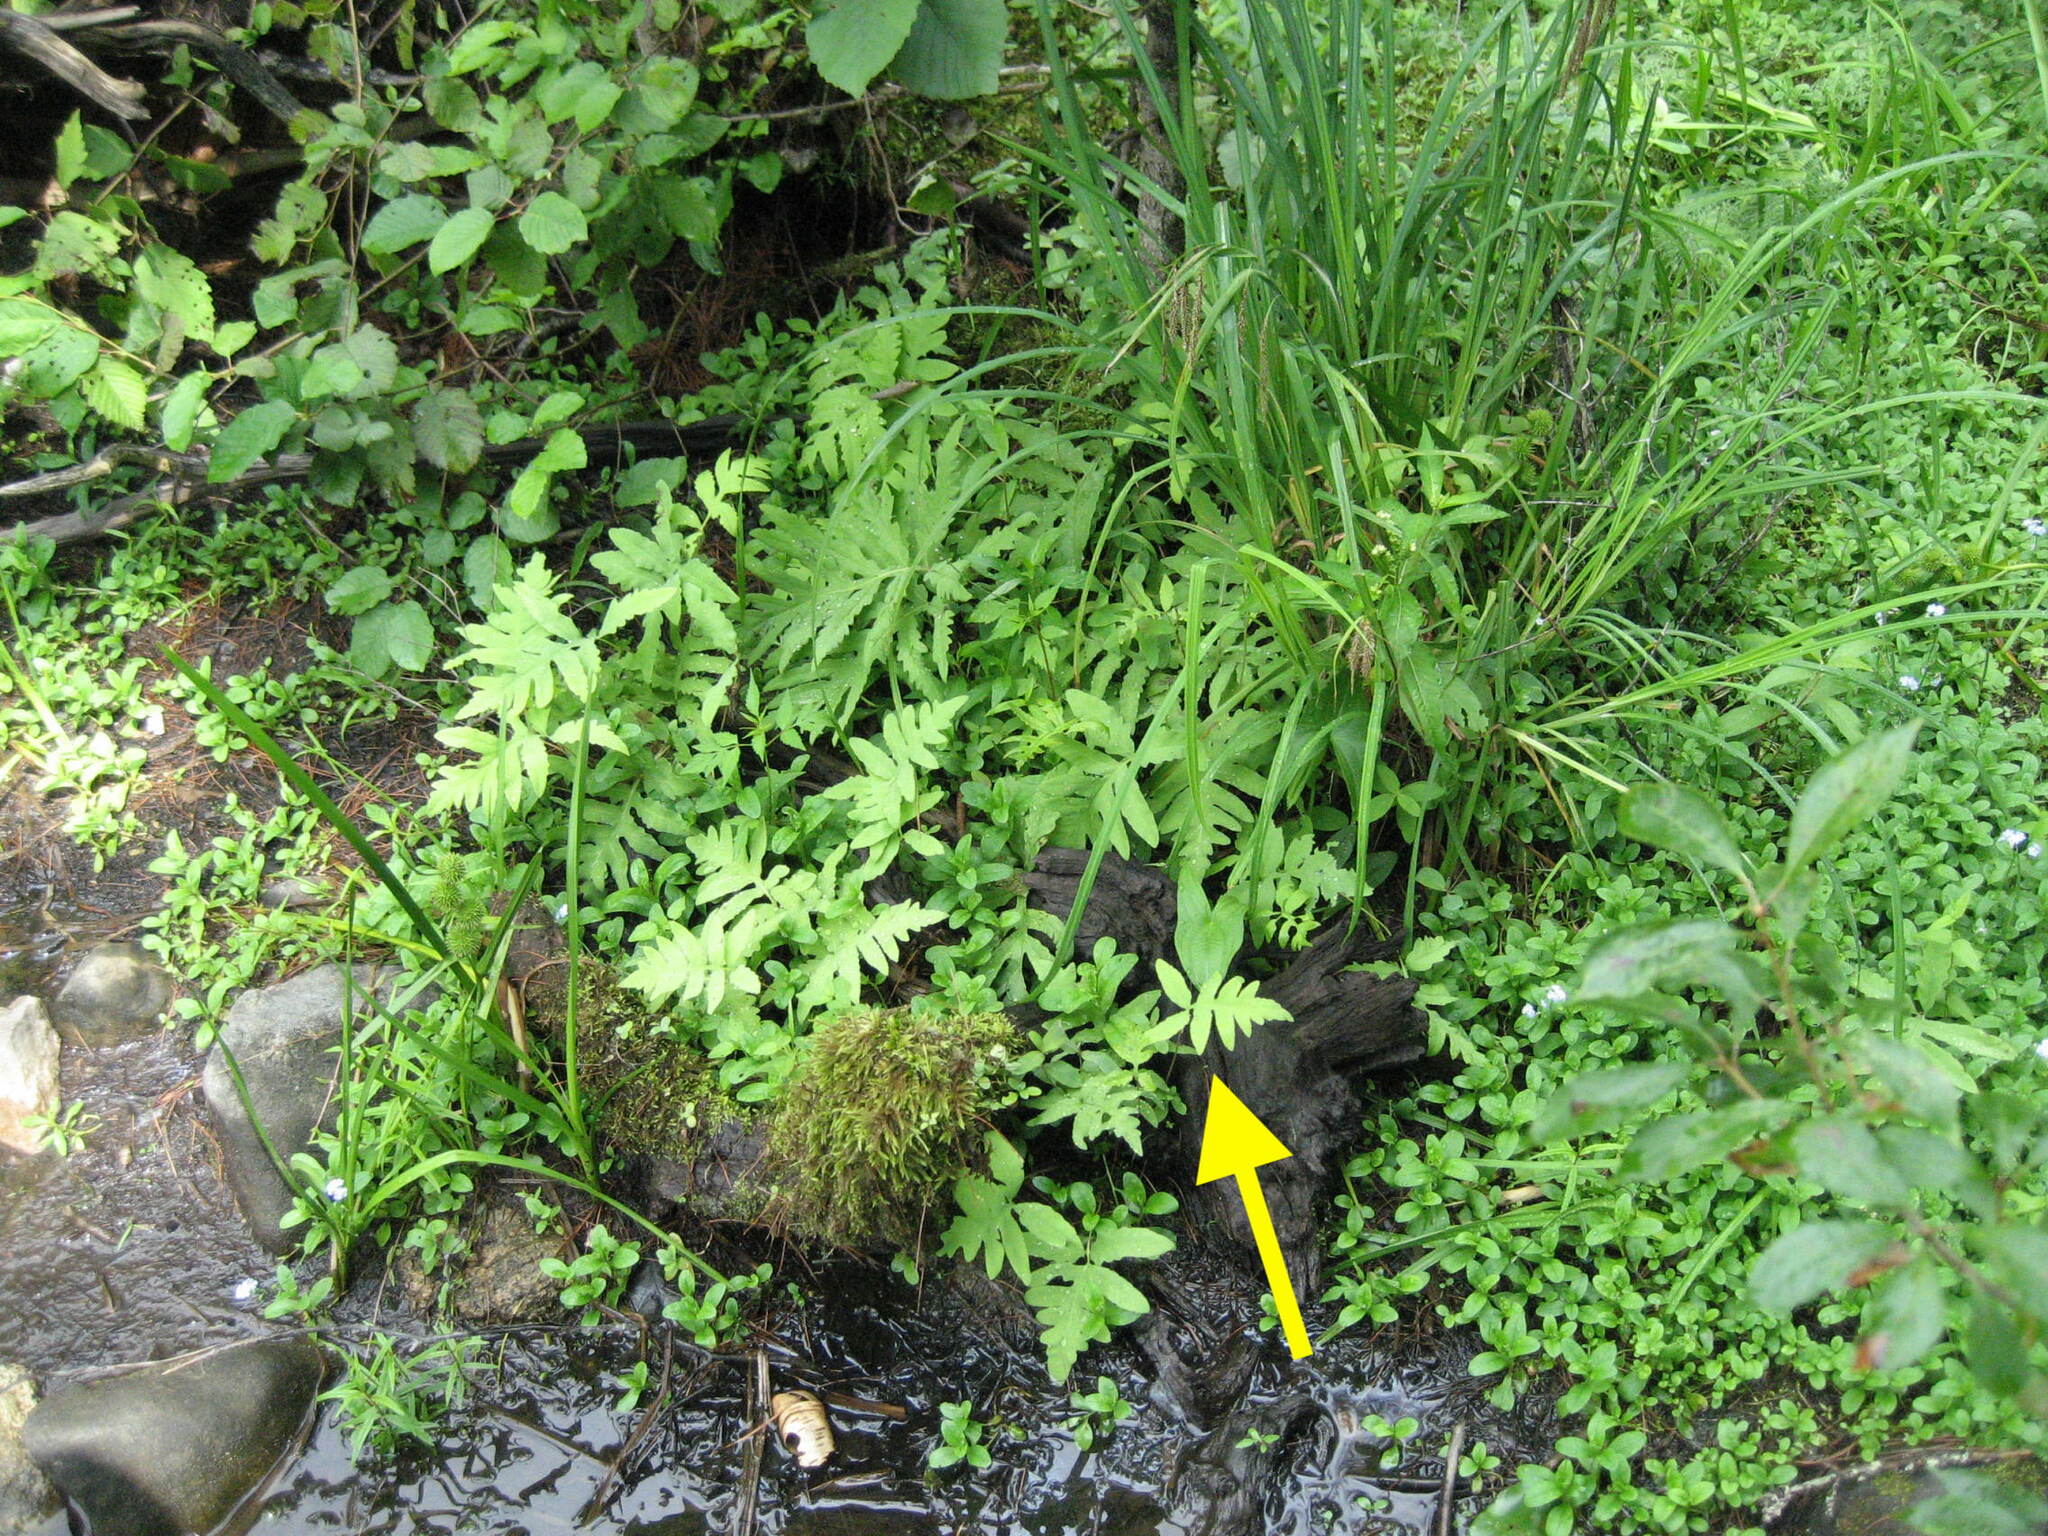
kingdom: Plantae
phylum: Tracheophyta
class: Polypodiopsida
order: Polypodiales
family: Onocleaceae
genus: Onoclea
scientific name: Onoclea sensibilis
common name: Sensitive fern
